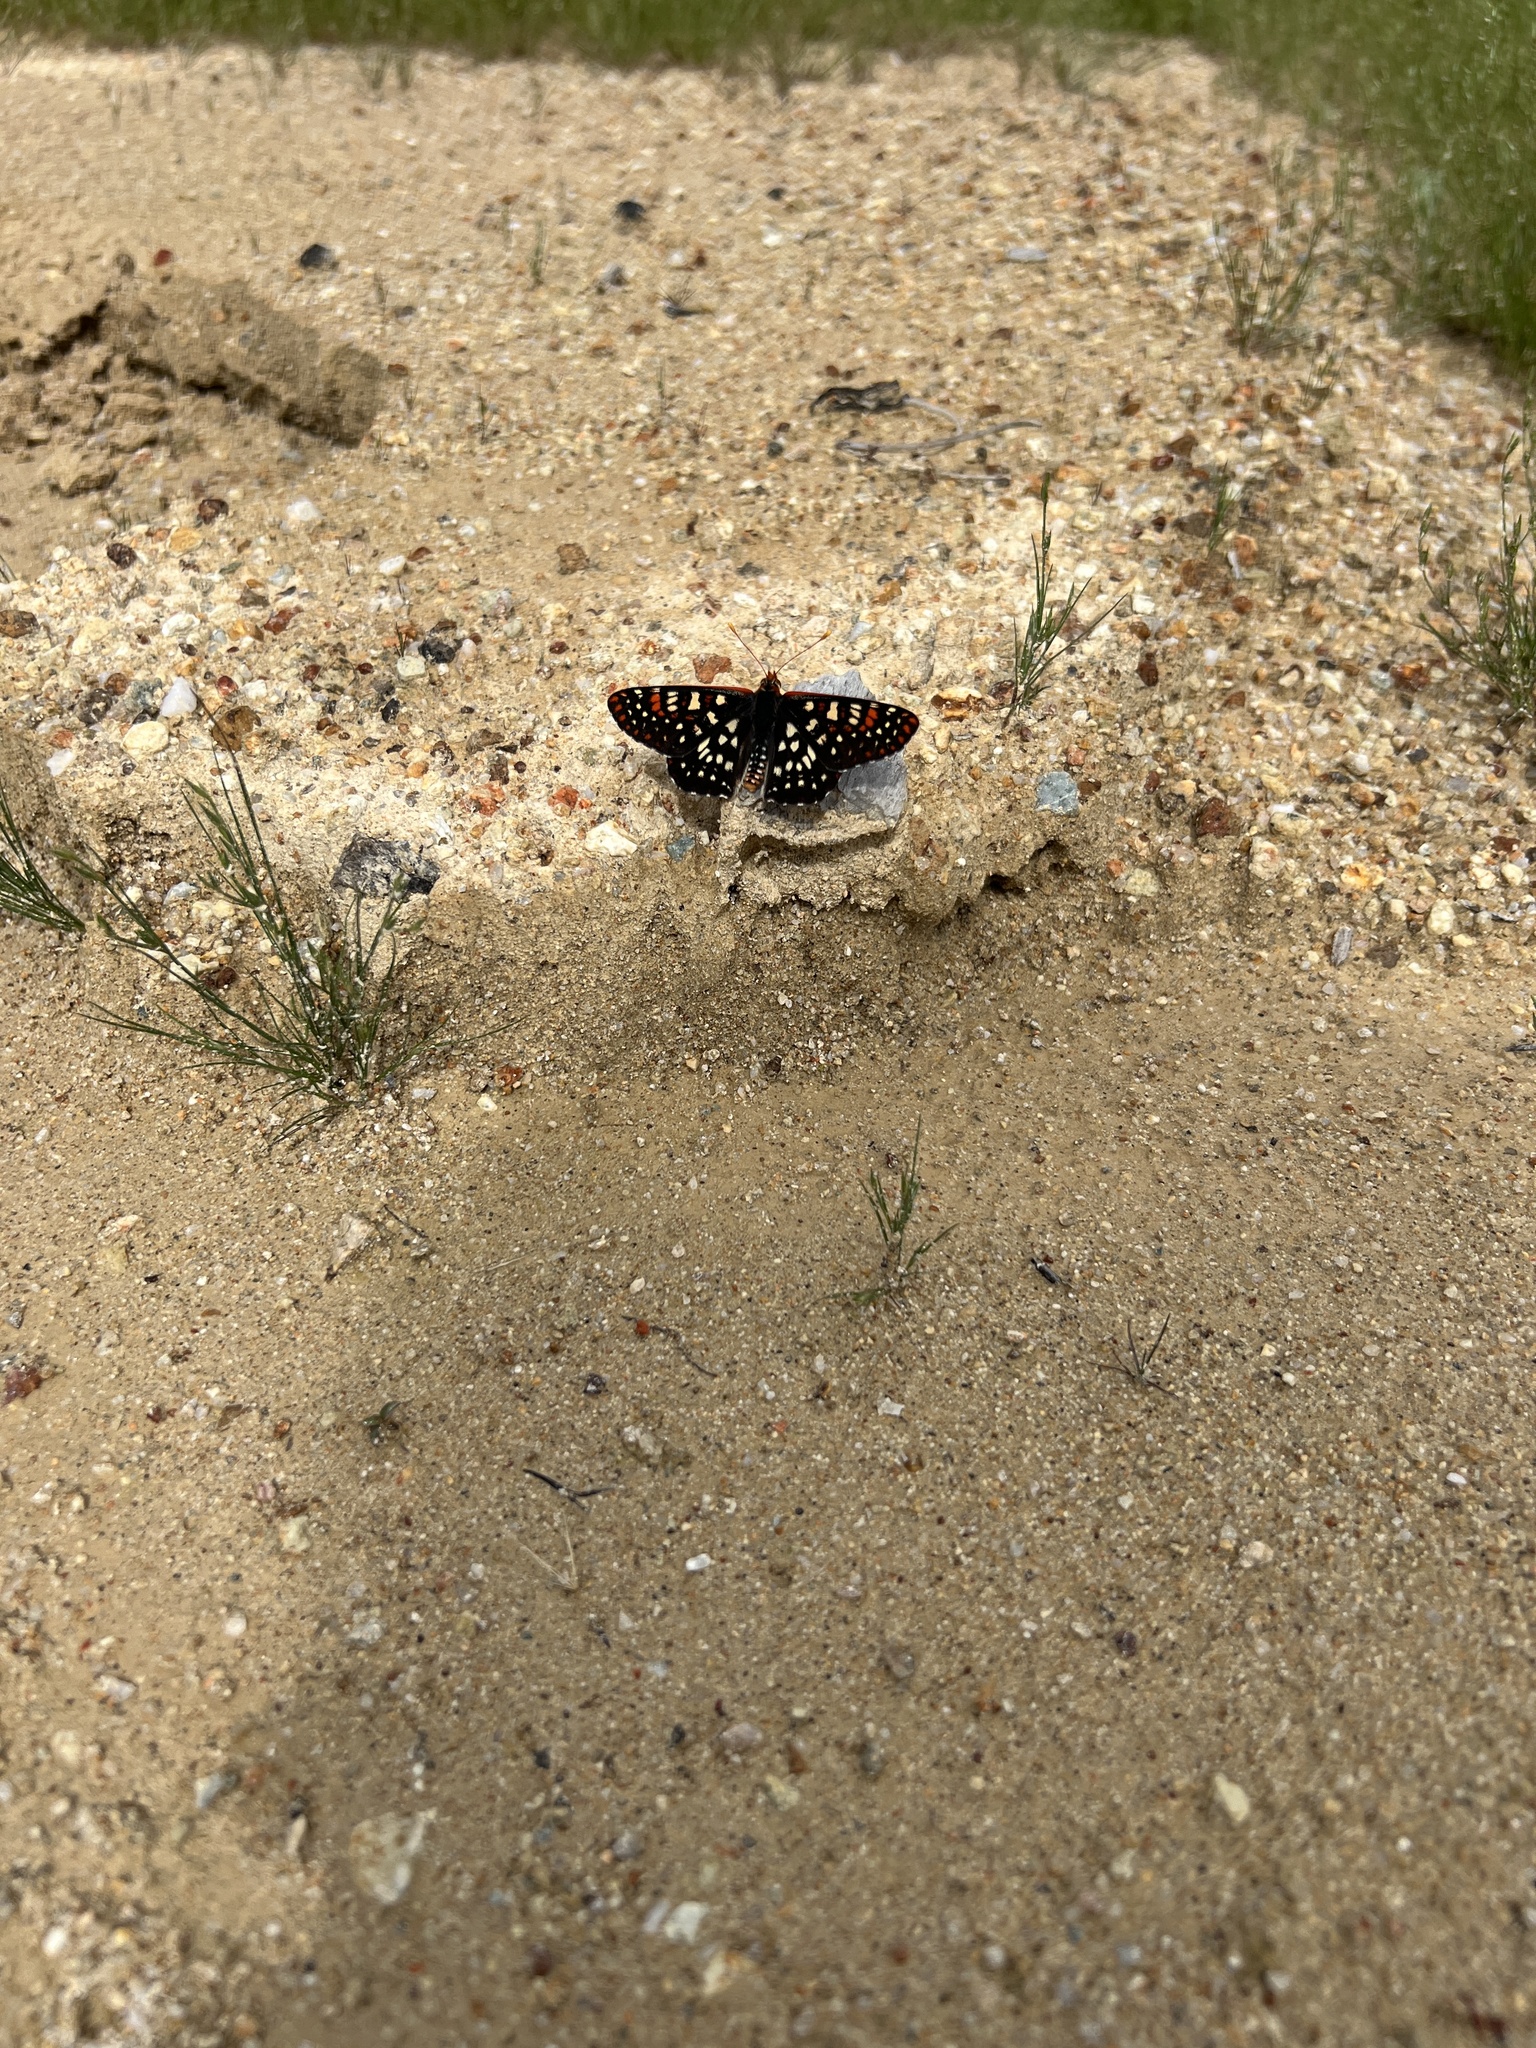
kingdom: Animalia
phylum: Arthropoda
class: Insecta
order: Lepidoptera
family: Nymphalidae
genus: Occidryas
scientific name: Occidryas chalcedona
